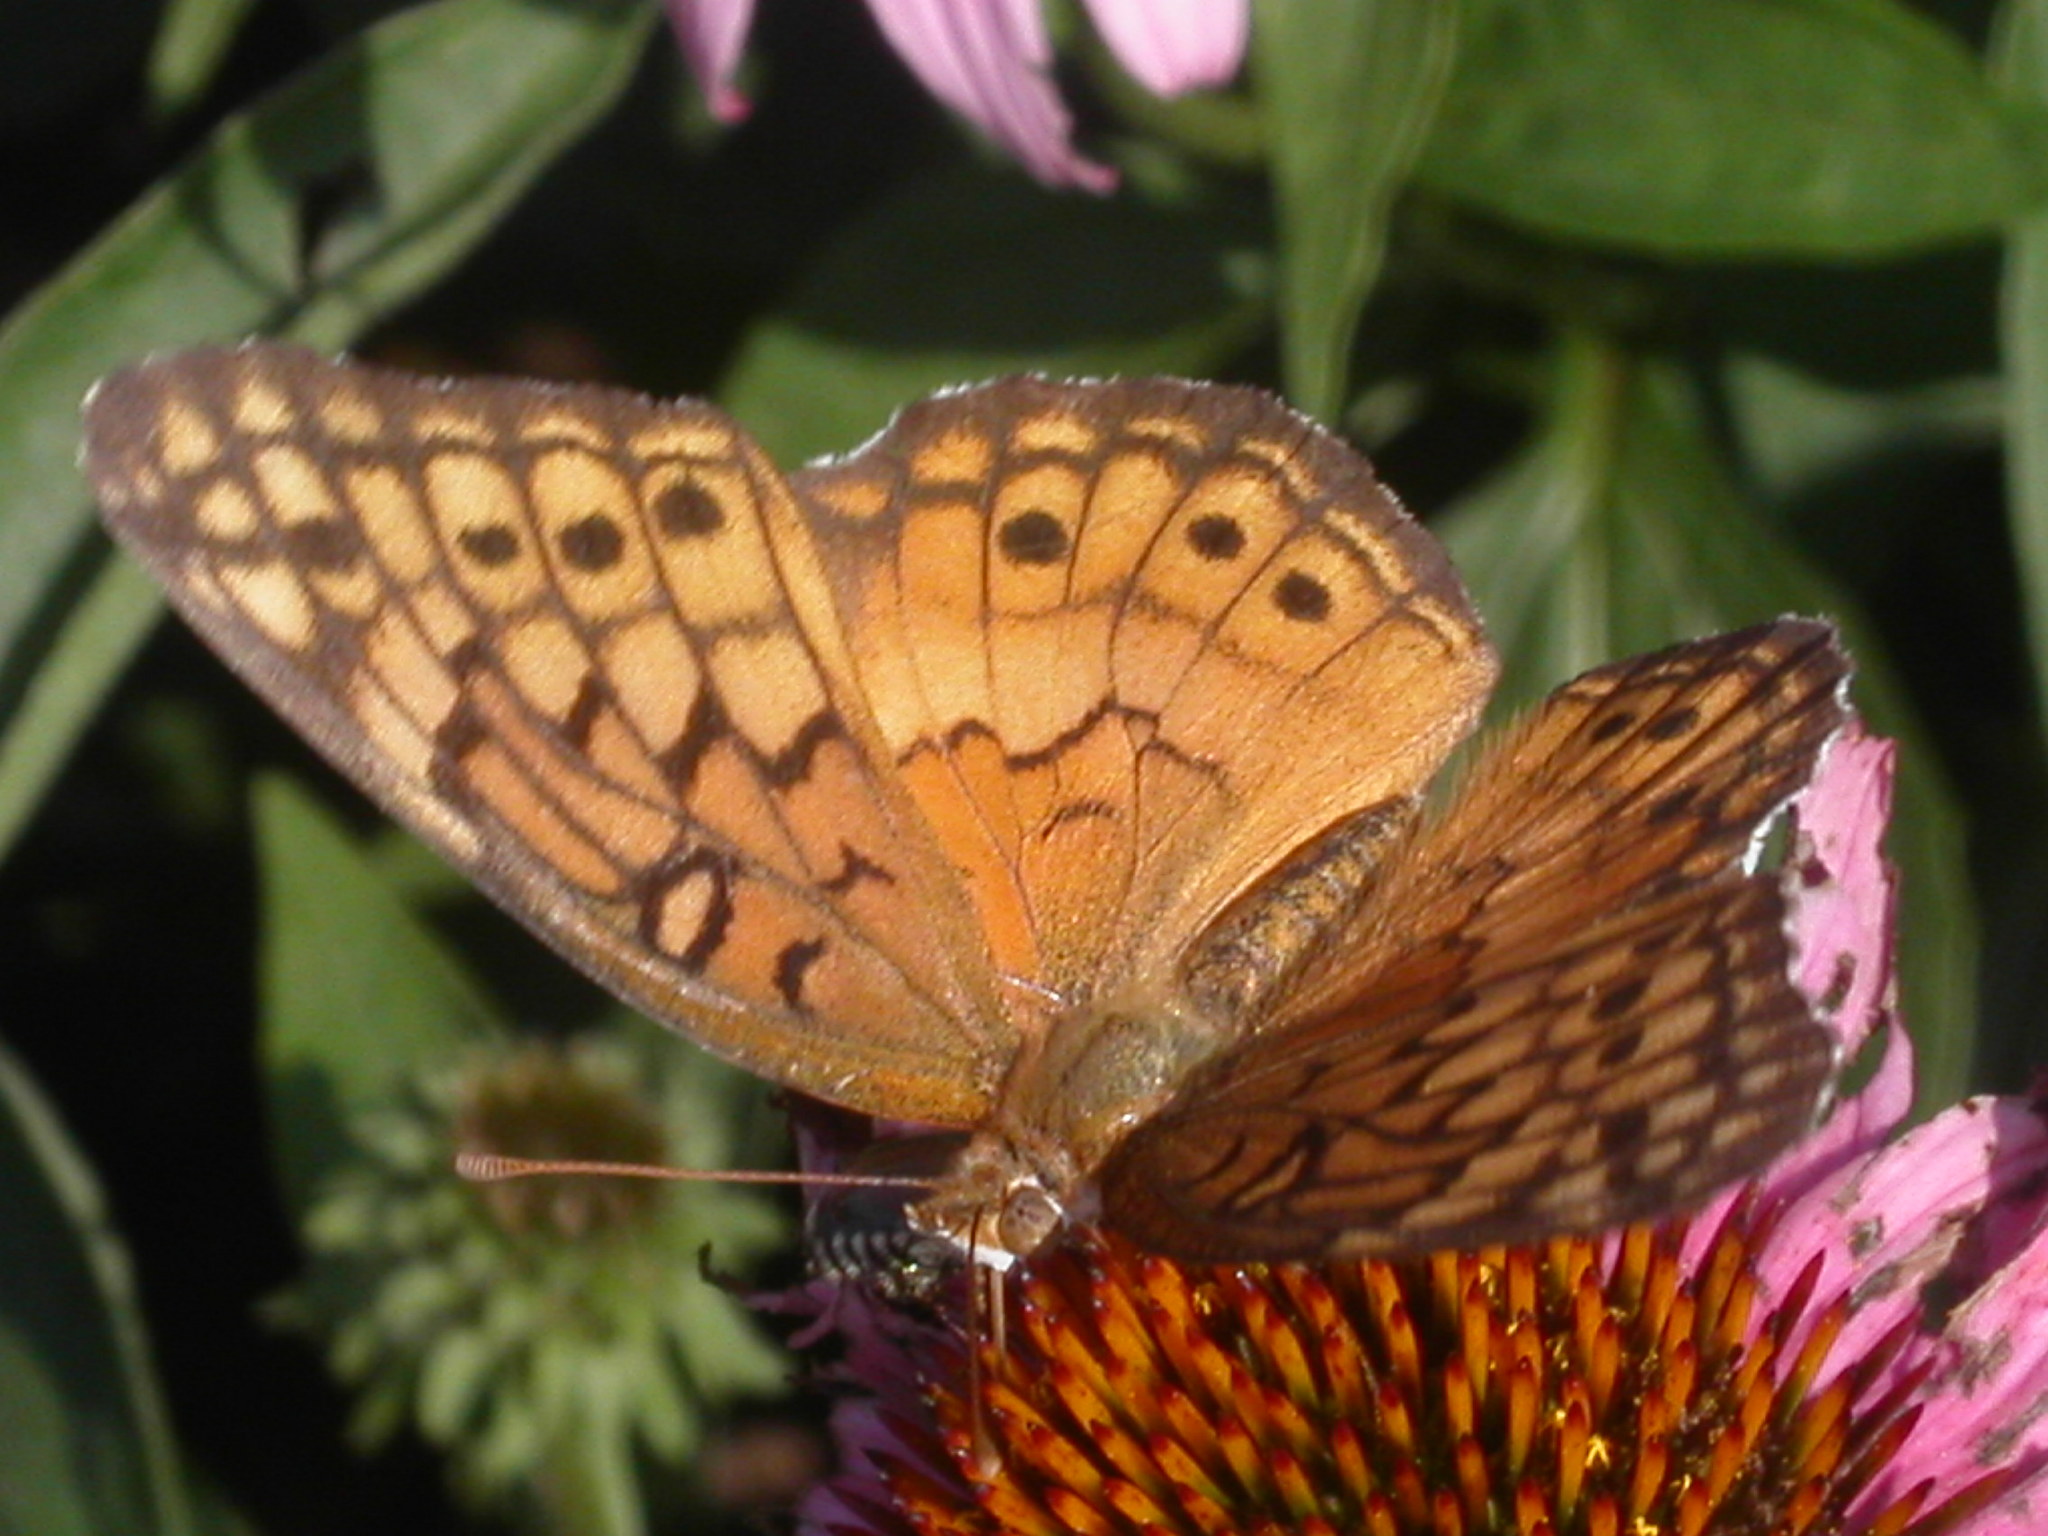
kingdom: Animalia
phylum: Arthropoda
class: Insecta
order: Lepidoptera
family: Nymphalidae
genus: Euptoieta
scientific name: Euptoieta claudia
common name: Variegated fritillary
